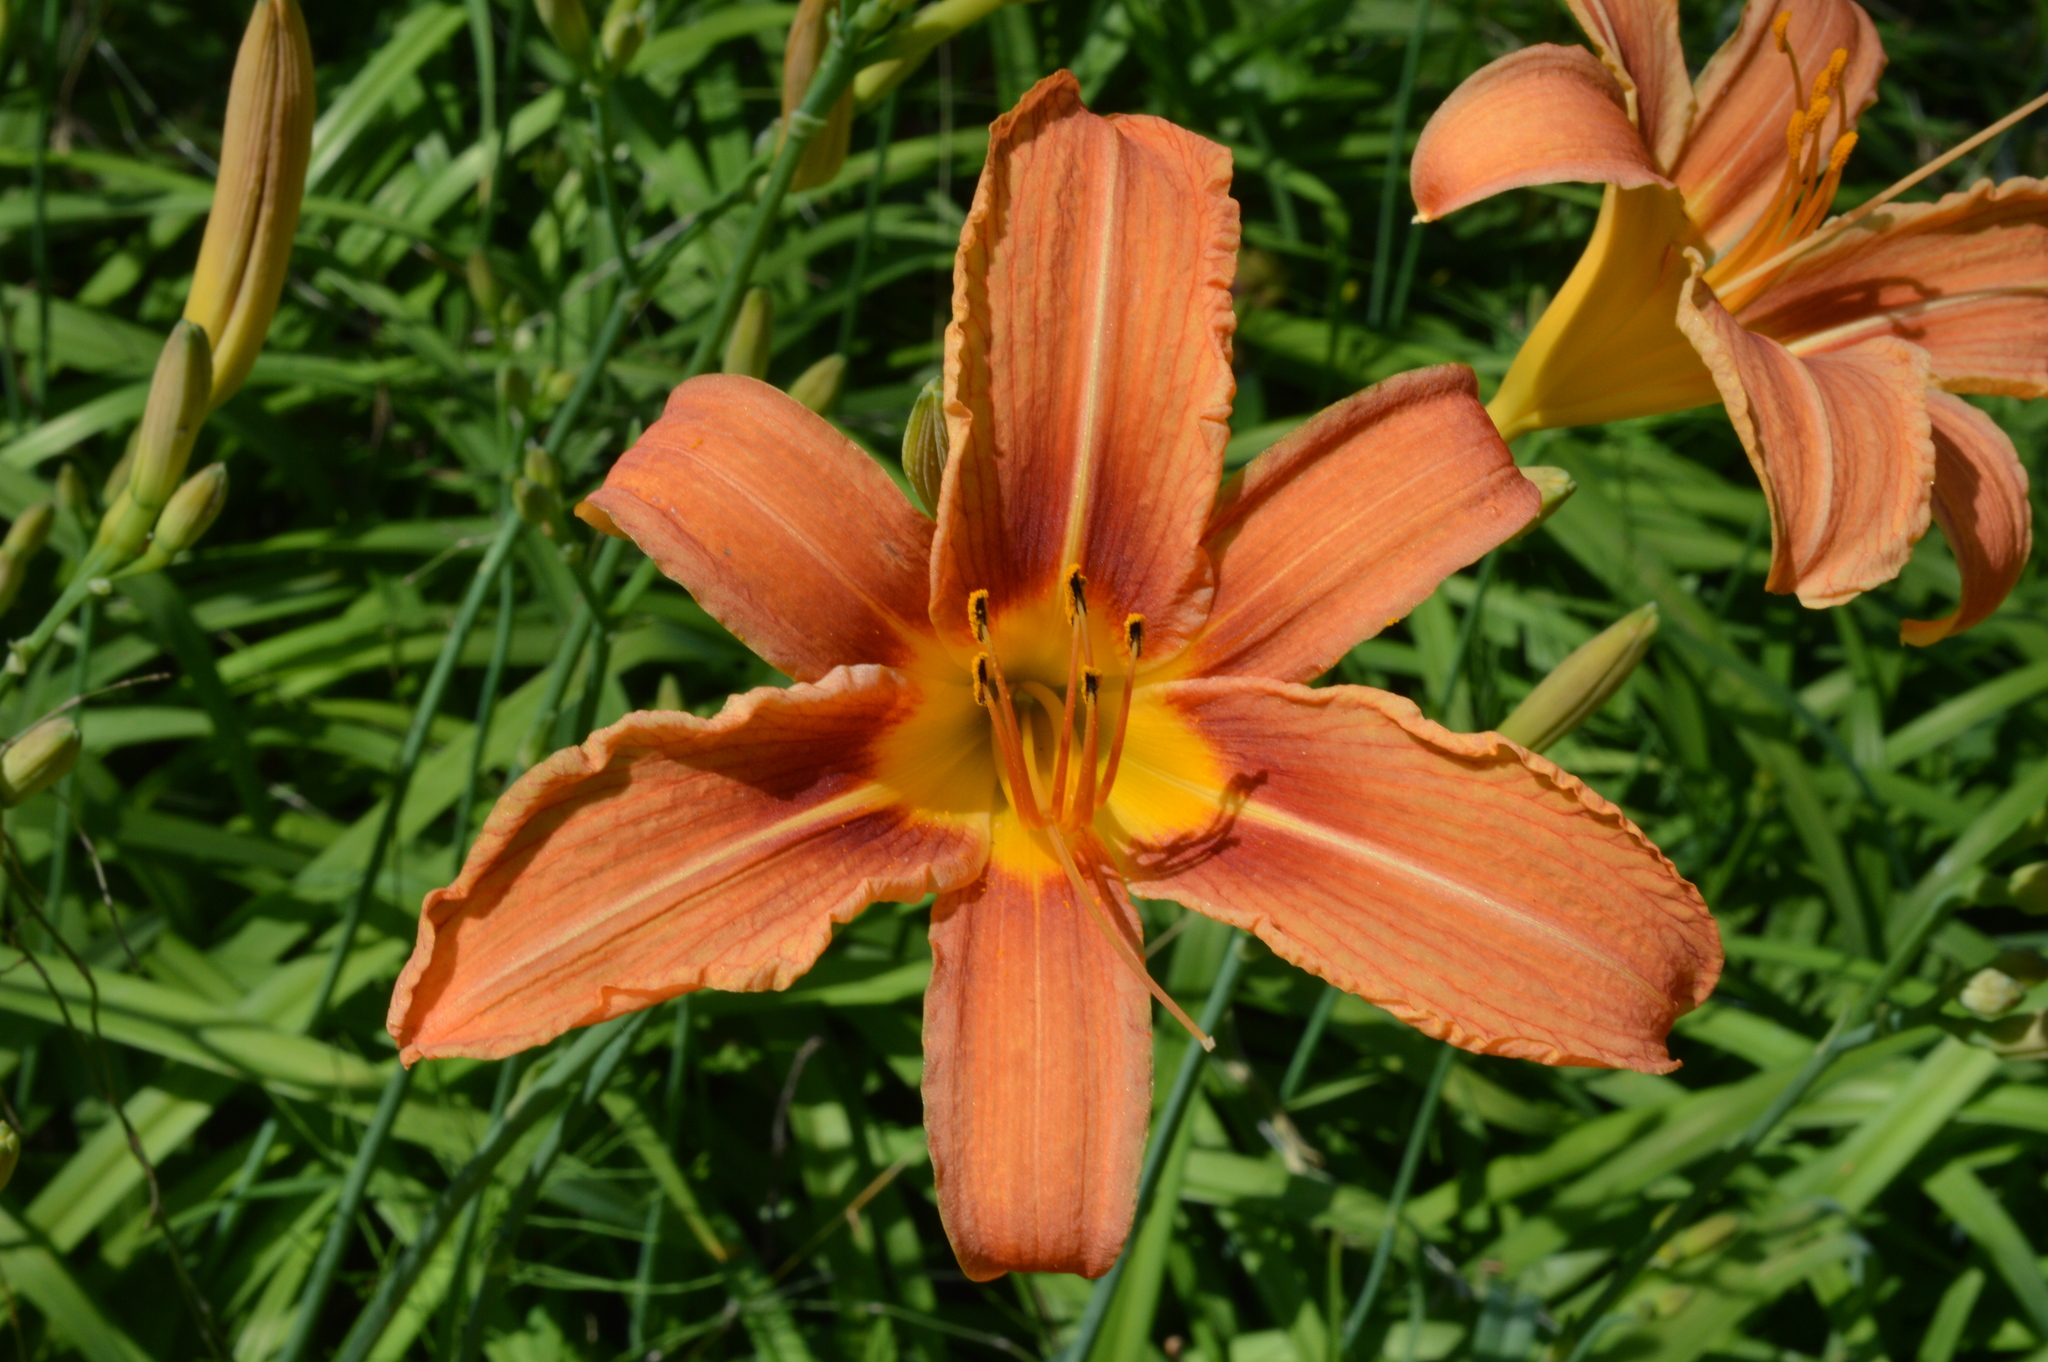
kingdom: Plantae
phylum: Tracheophyta
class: Liliopsida
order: Asparagales
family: Asphodelaceae
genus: Hemerocallis
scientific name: Hemerocallis fulva
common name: Orange day-lily
